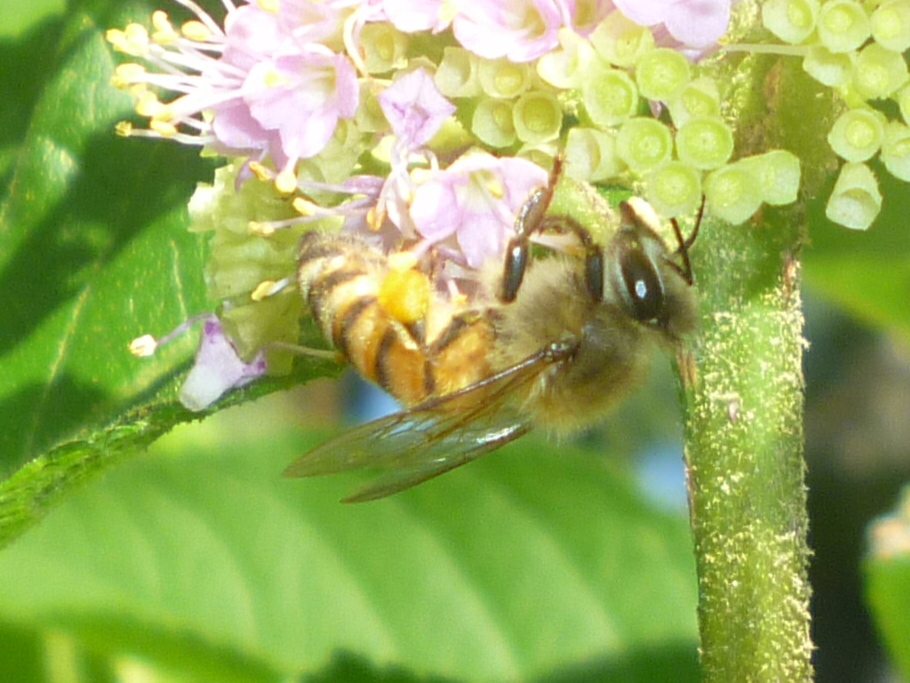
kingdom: Animalia
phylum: Arthropoda
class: Insecta
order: Hymenoptera
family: Apidae
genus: Apis
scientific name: Apis mellifera
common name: Honey bee
